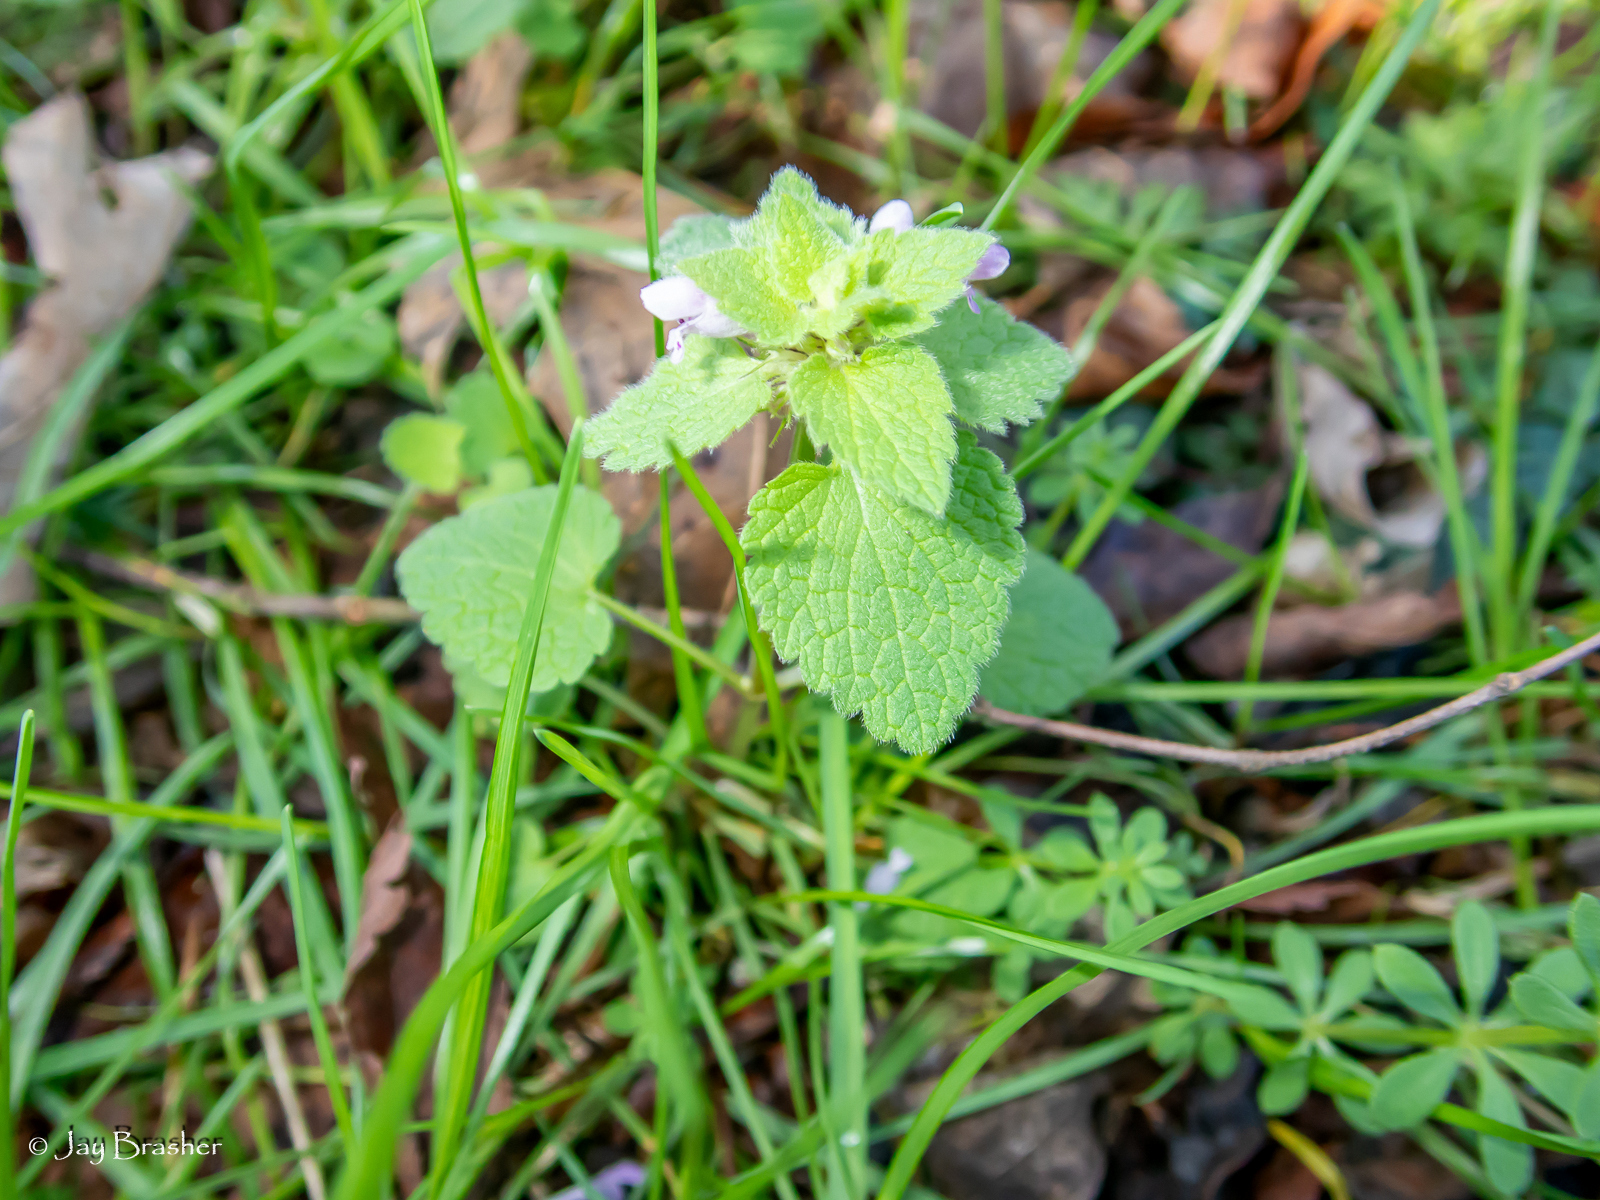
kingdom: Plantae
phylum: Tracheophyta
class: Magnoliopsida
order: Lamiales
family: Lamiaceae
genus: Lamium
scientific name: Lamium purpureum
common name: Red dead-nettle
